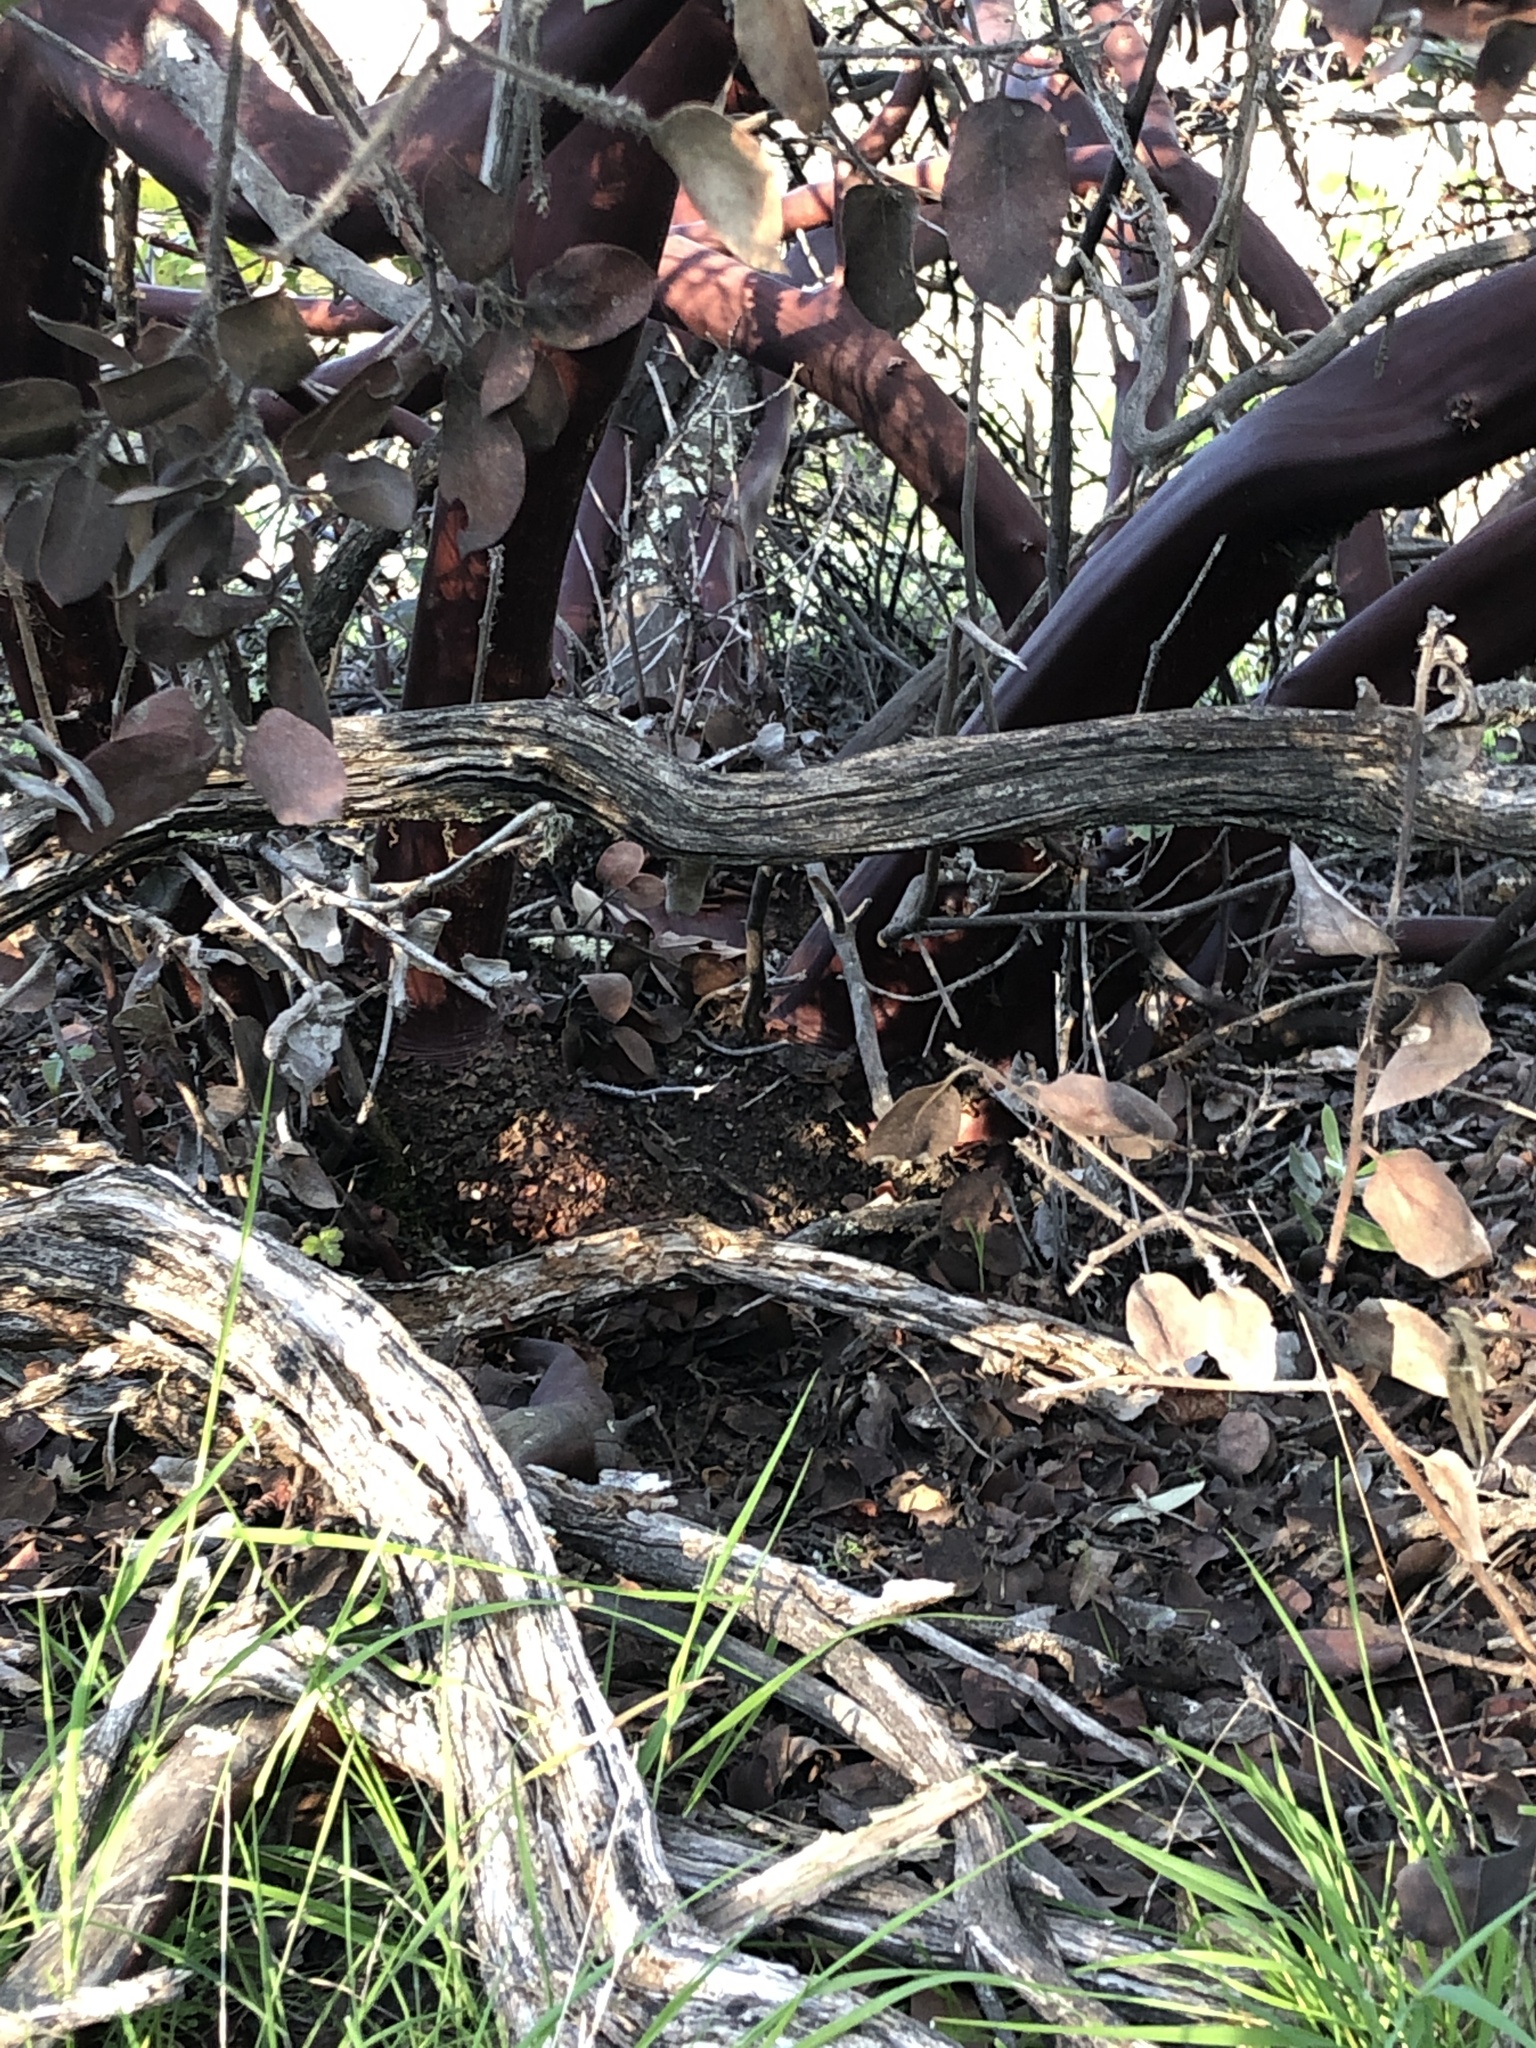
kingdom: Plantae
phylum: Tracheophyta
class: Magnoliopsida
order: Ericales
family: Ericaceae
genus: Arctostaphylos
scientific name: Arctostaphylos crustacea
